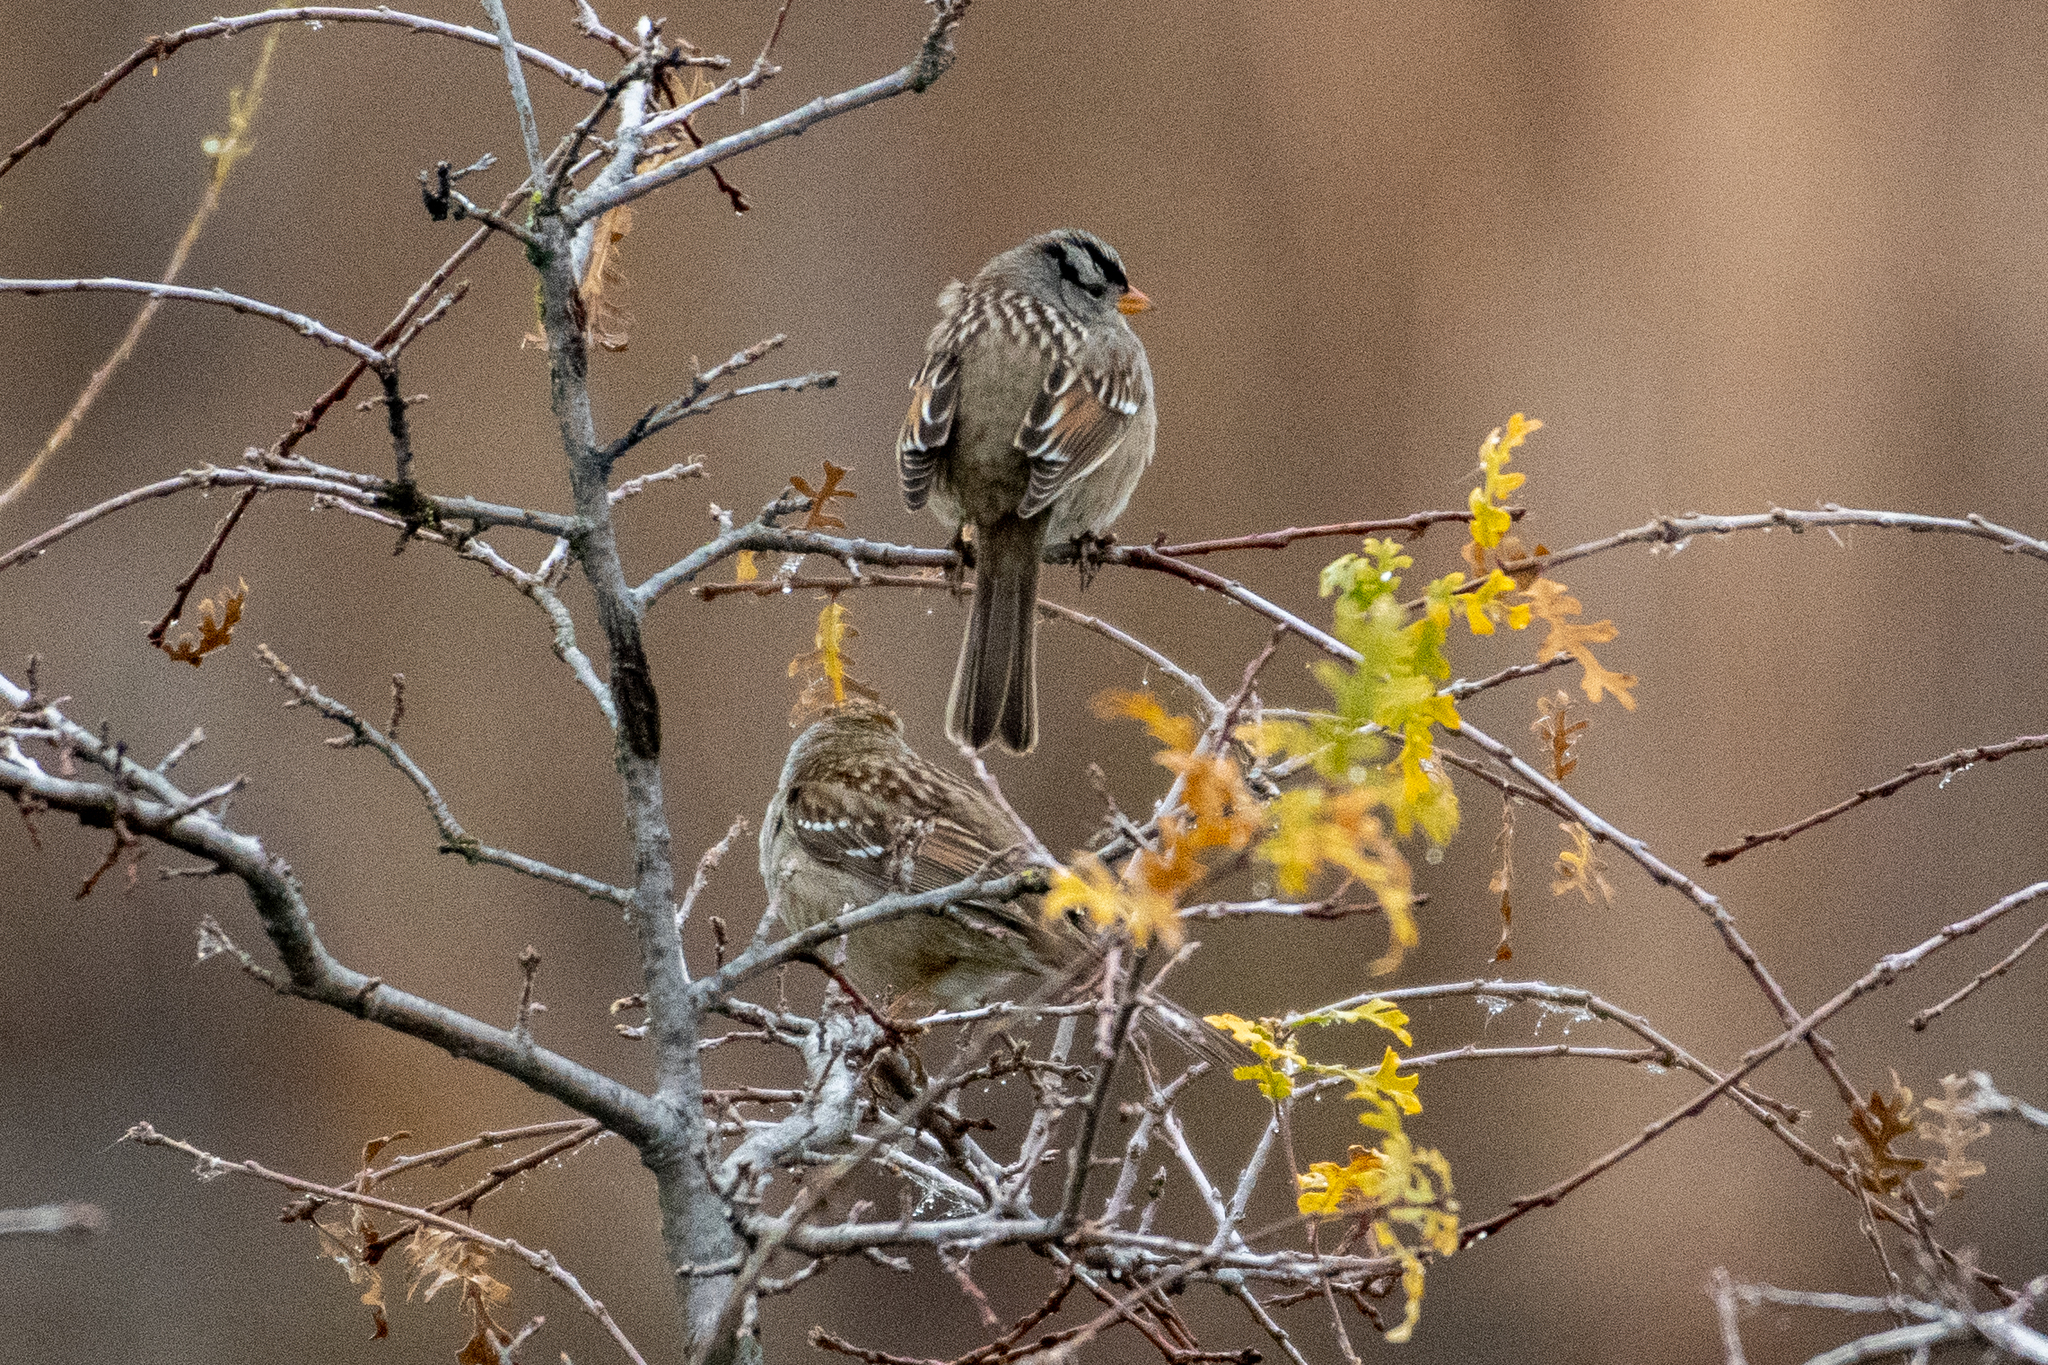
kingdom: Animalia
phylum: Chordata
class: Aves
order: Passeriformes
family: Passerellidae
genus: Zonotrichia
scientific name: Zonotrichia leucophrys
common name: White-crowned sparrow
